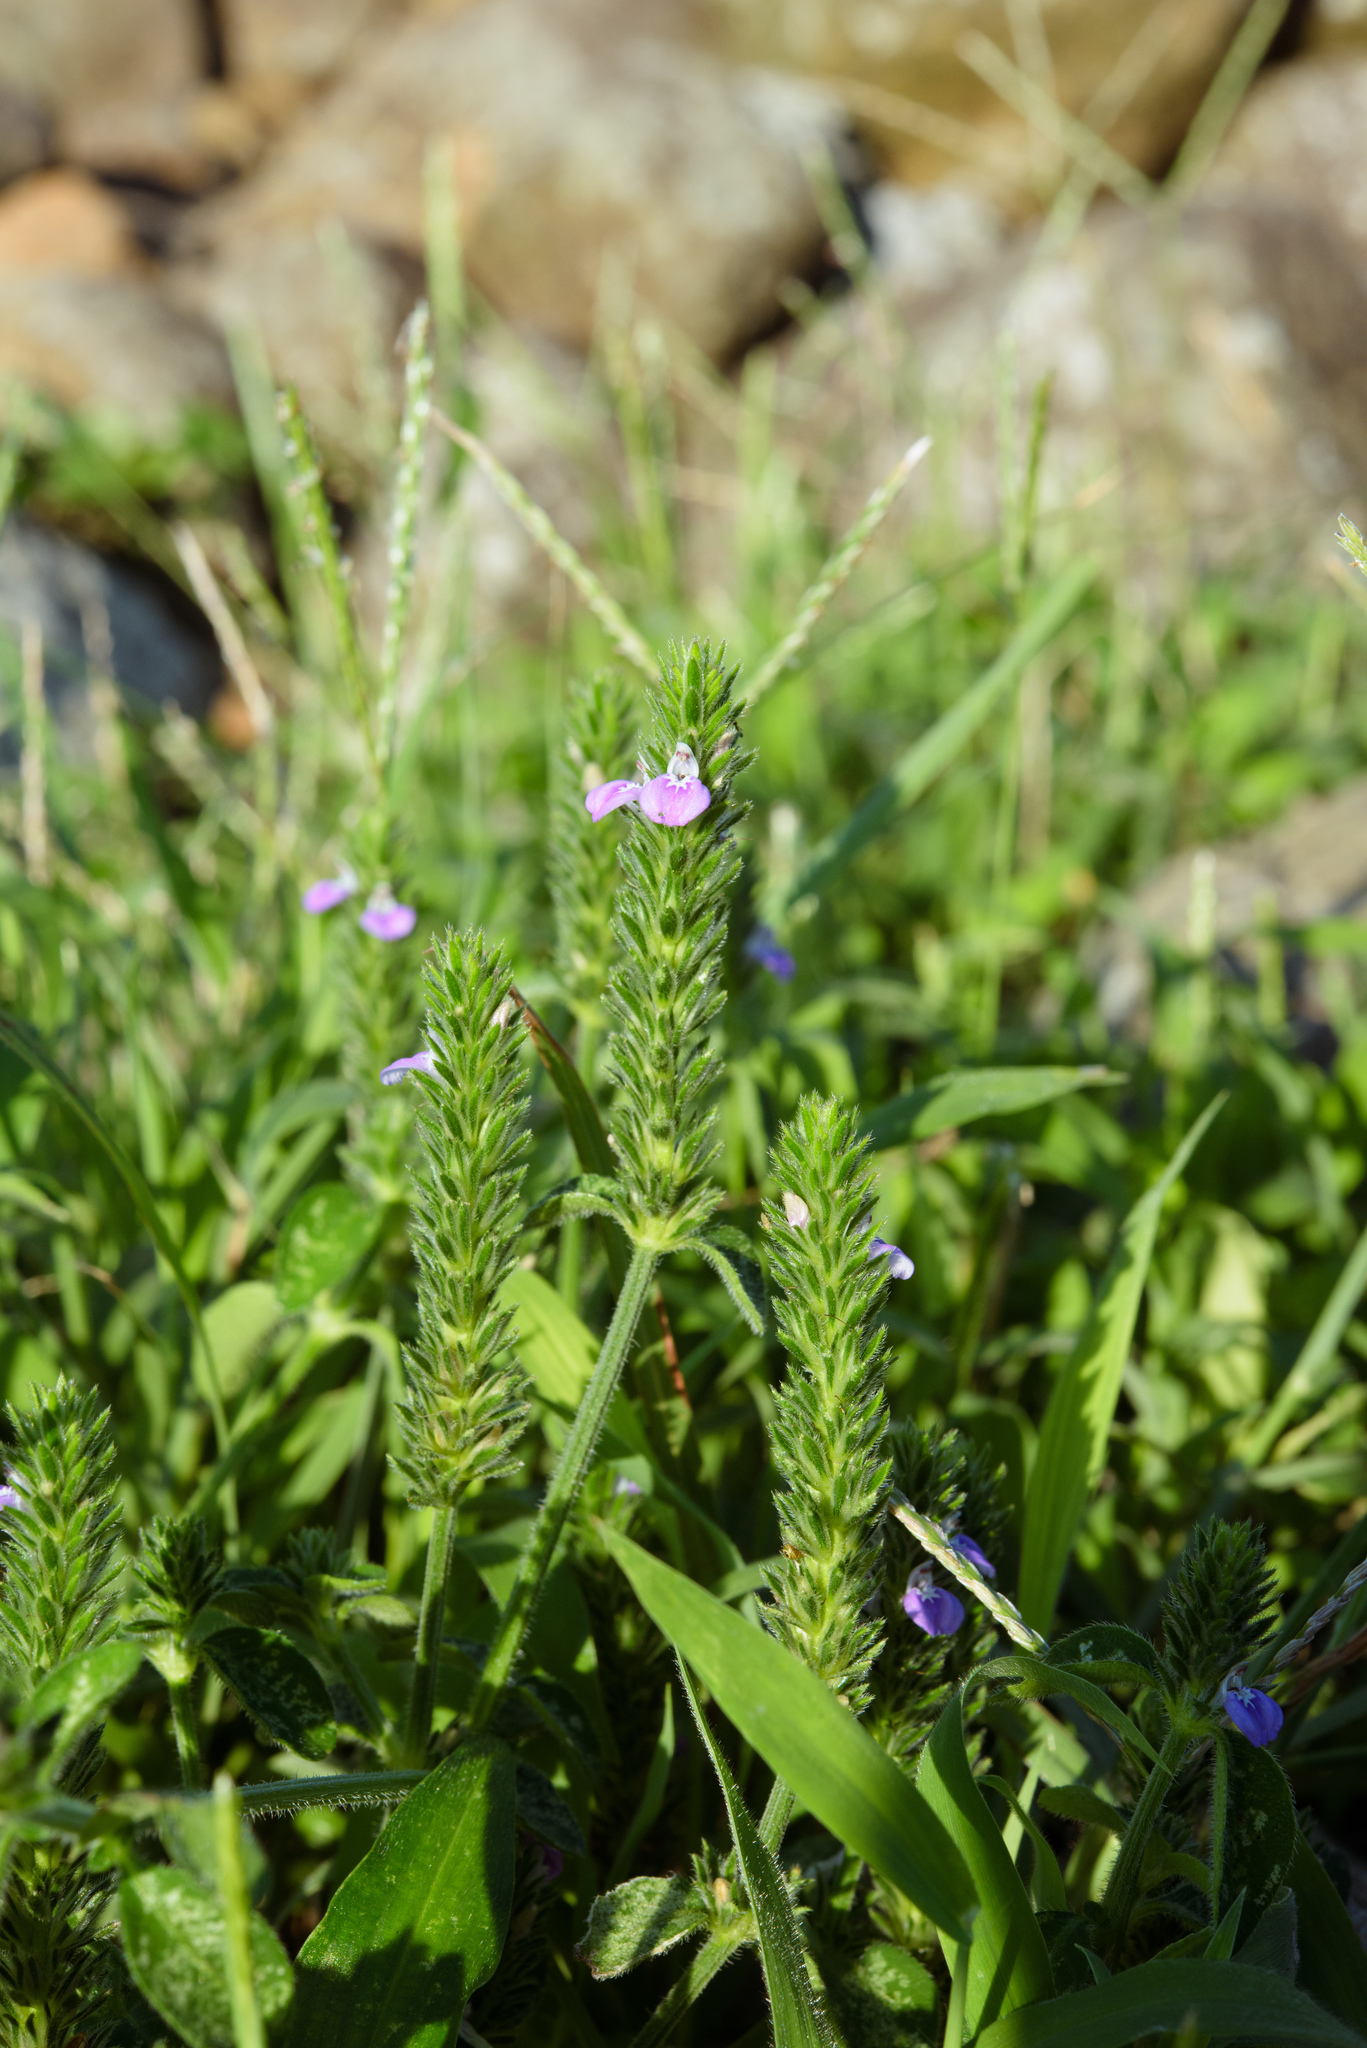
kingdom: Plantae
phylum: Tracheophyta
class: Magnoliopsida
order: Lamiales
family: Acanthaceae
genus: Rostellularia
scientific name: Rostellularia procumbens
